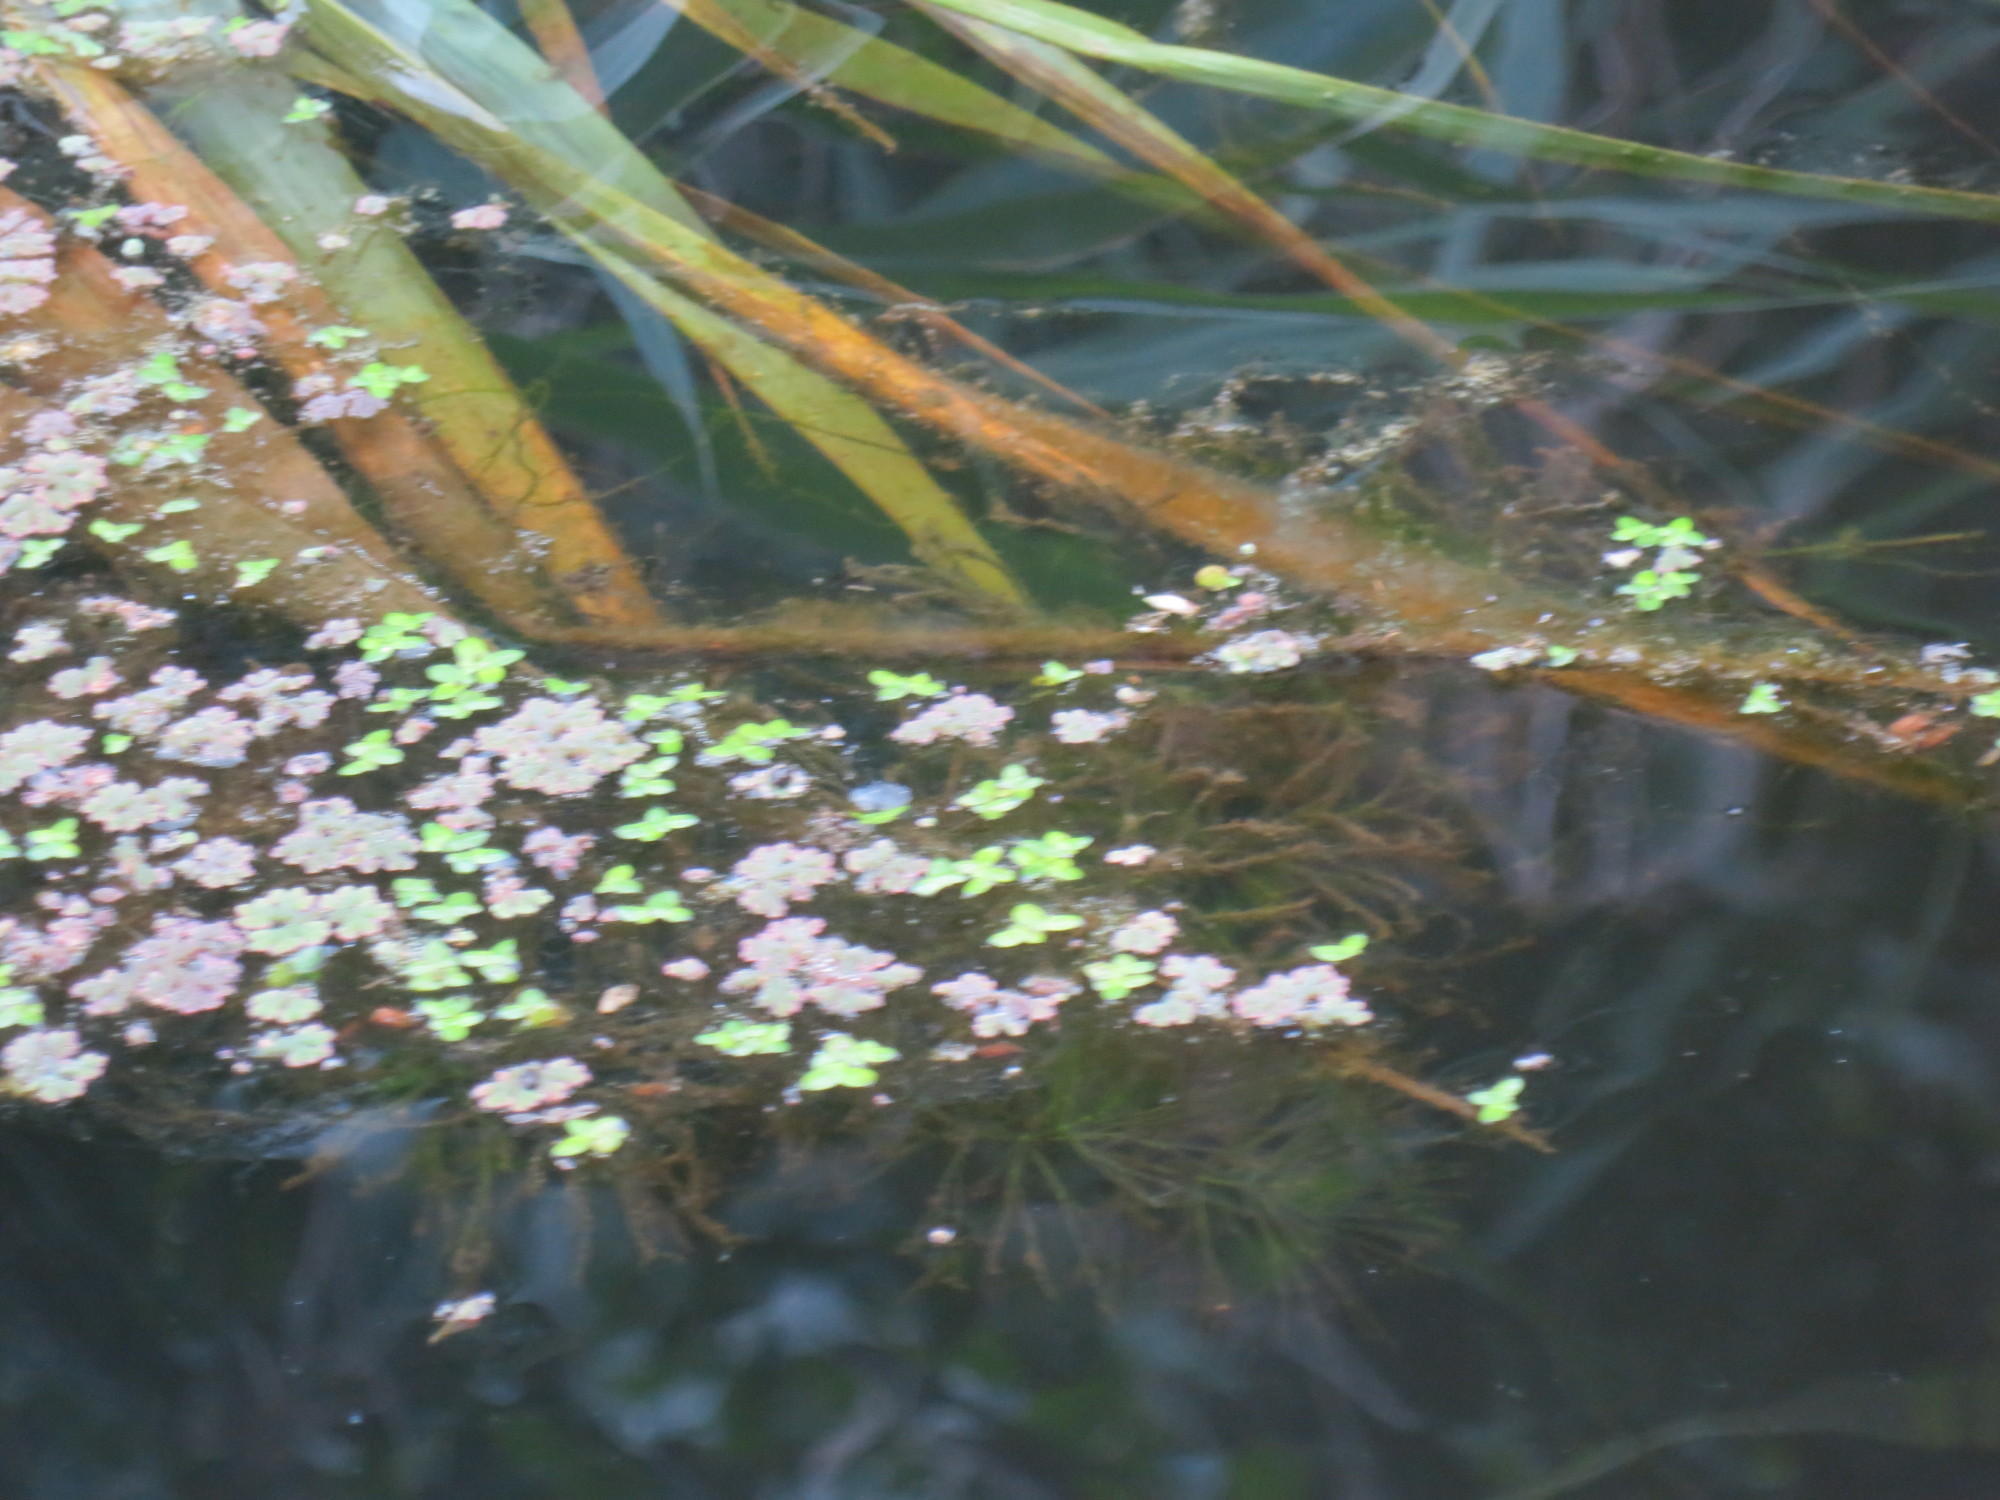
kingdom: Plantae
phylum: Tracheophyta
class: Polypodiopsida
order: Salviniales
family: Salviniaceae
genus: Azolla
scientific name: Azolla filiculoides
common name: Water fern
